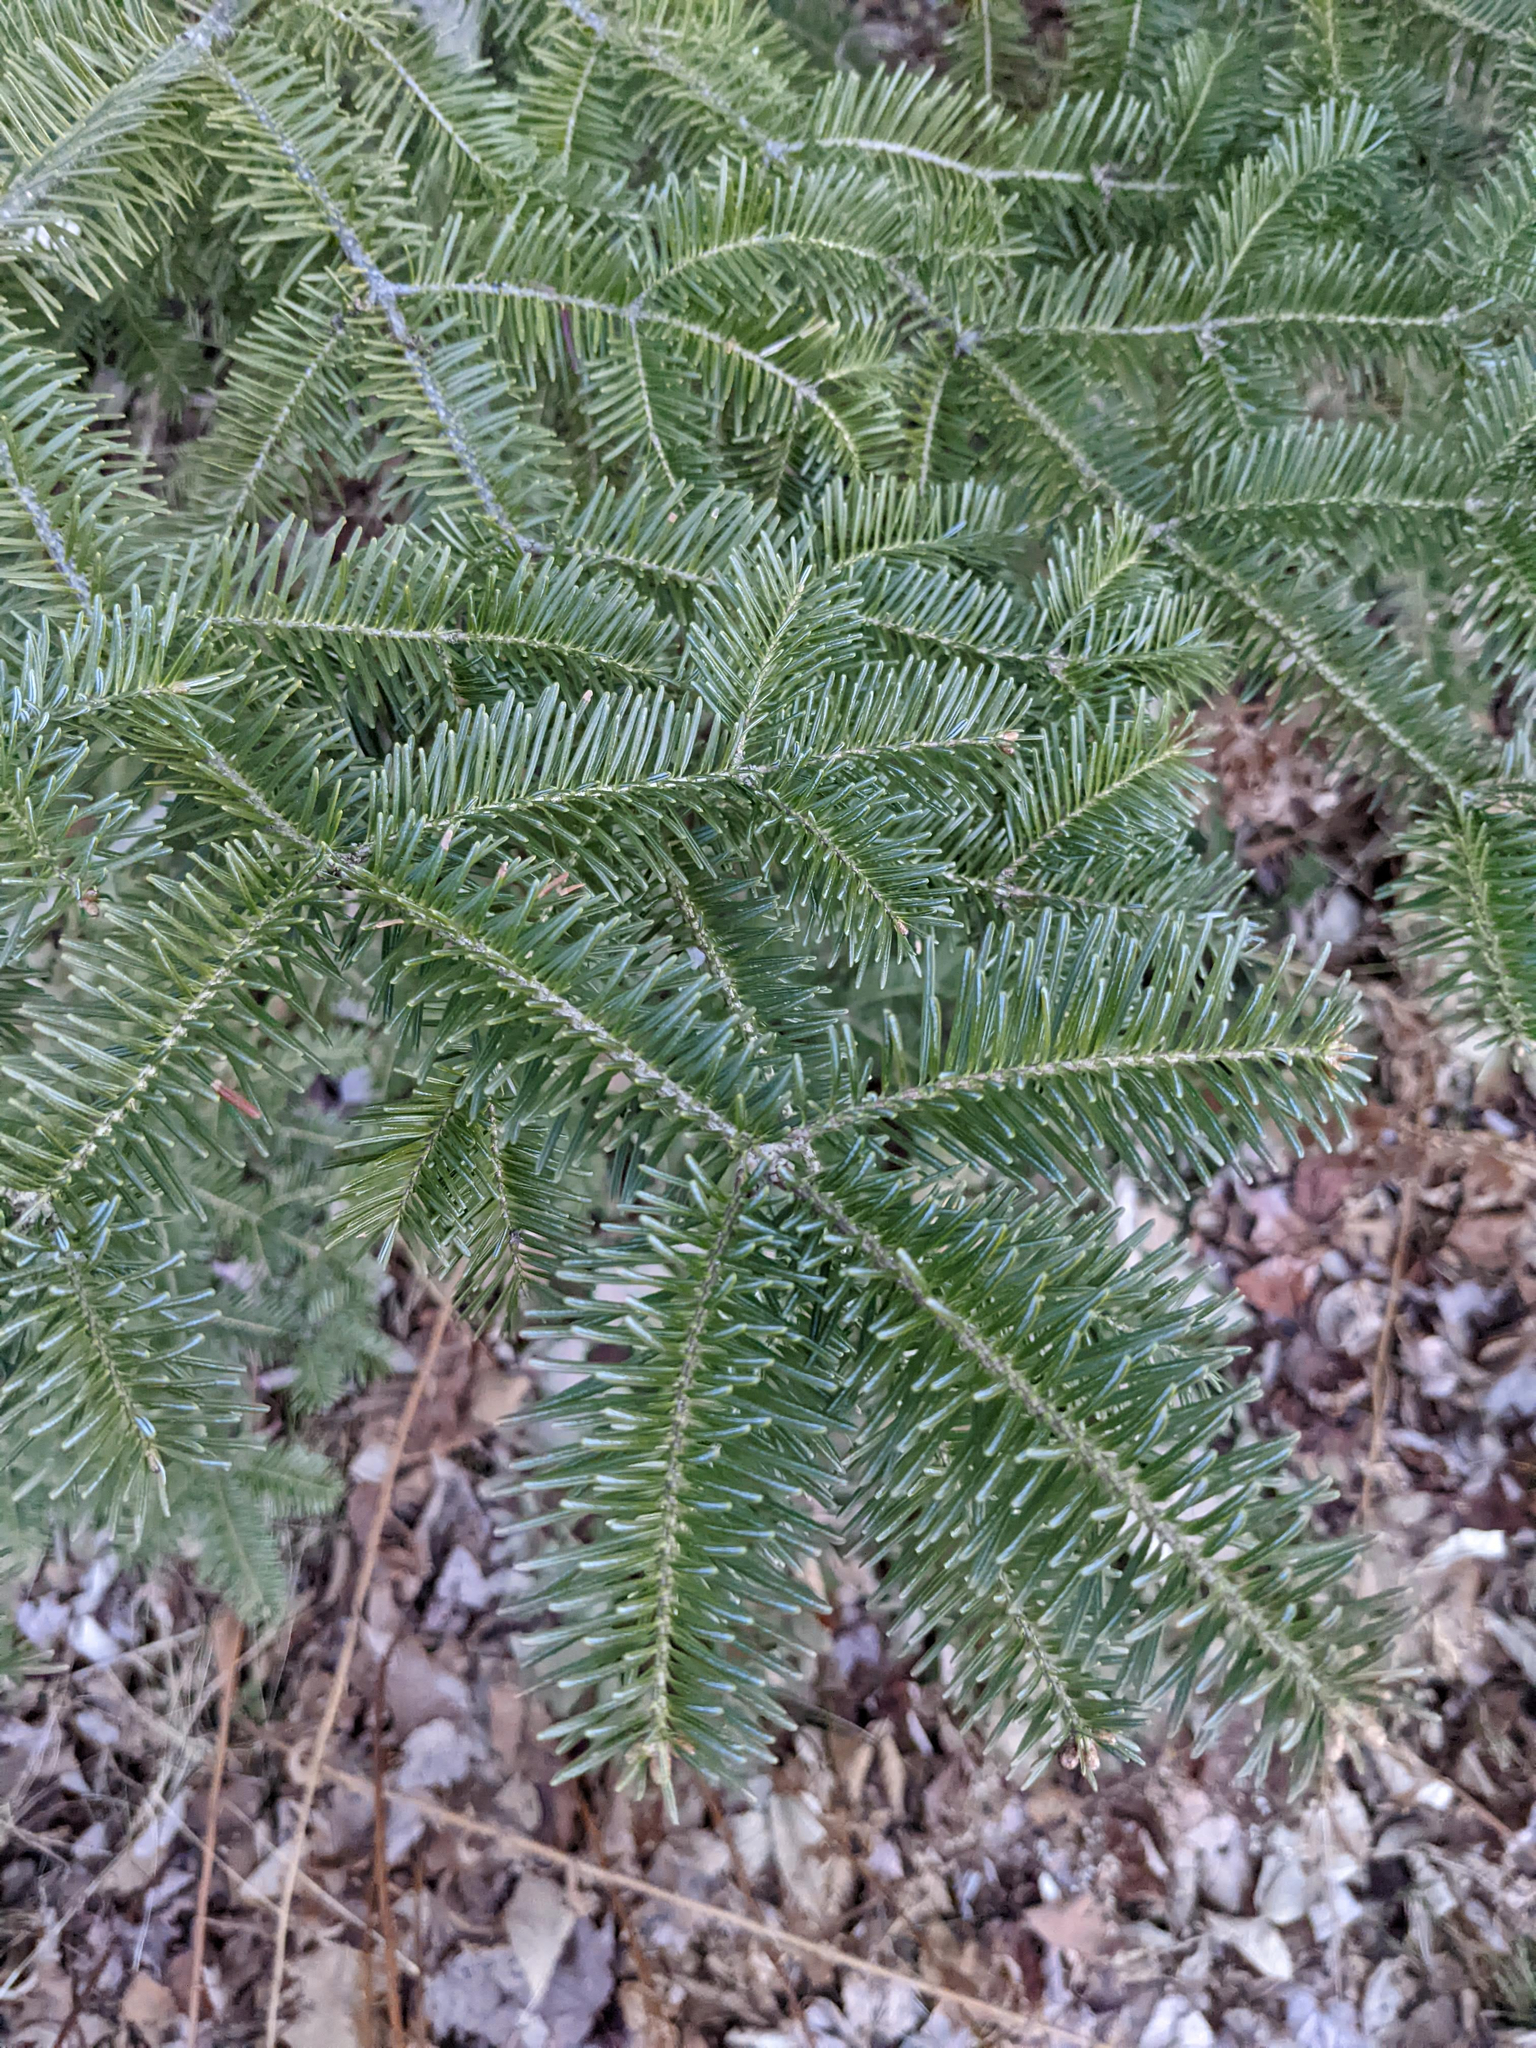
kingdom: Plantae
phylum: Tracheophyta
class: Pinopsida
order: Pinales
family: Pinaceae
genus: Abies
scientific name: Abies balsamea
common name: Balsam fir
